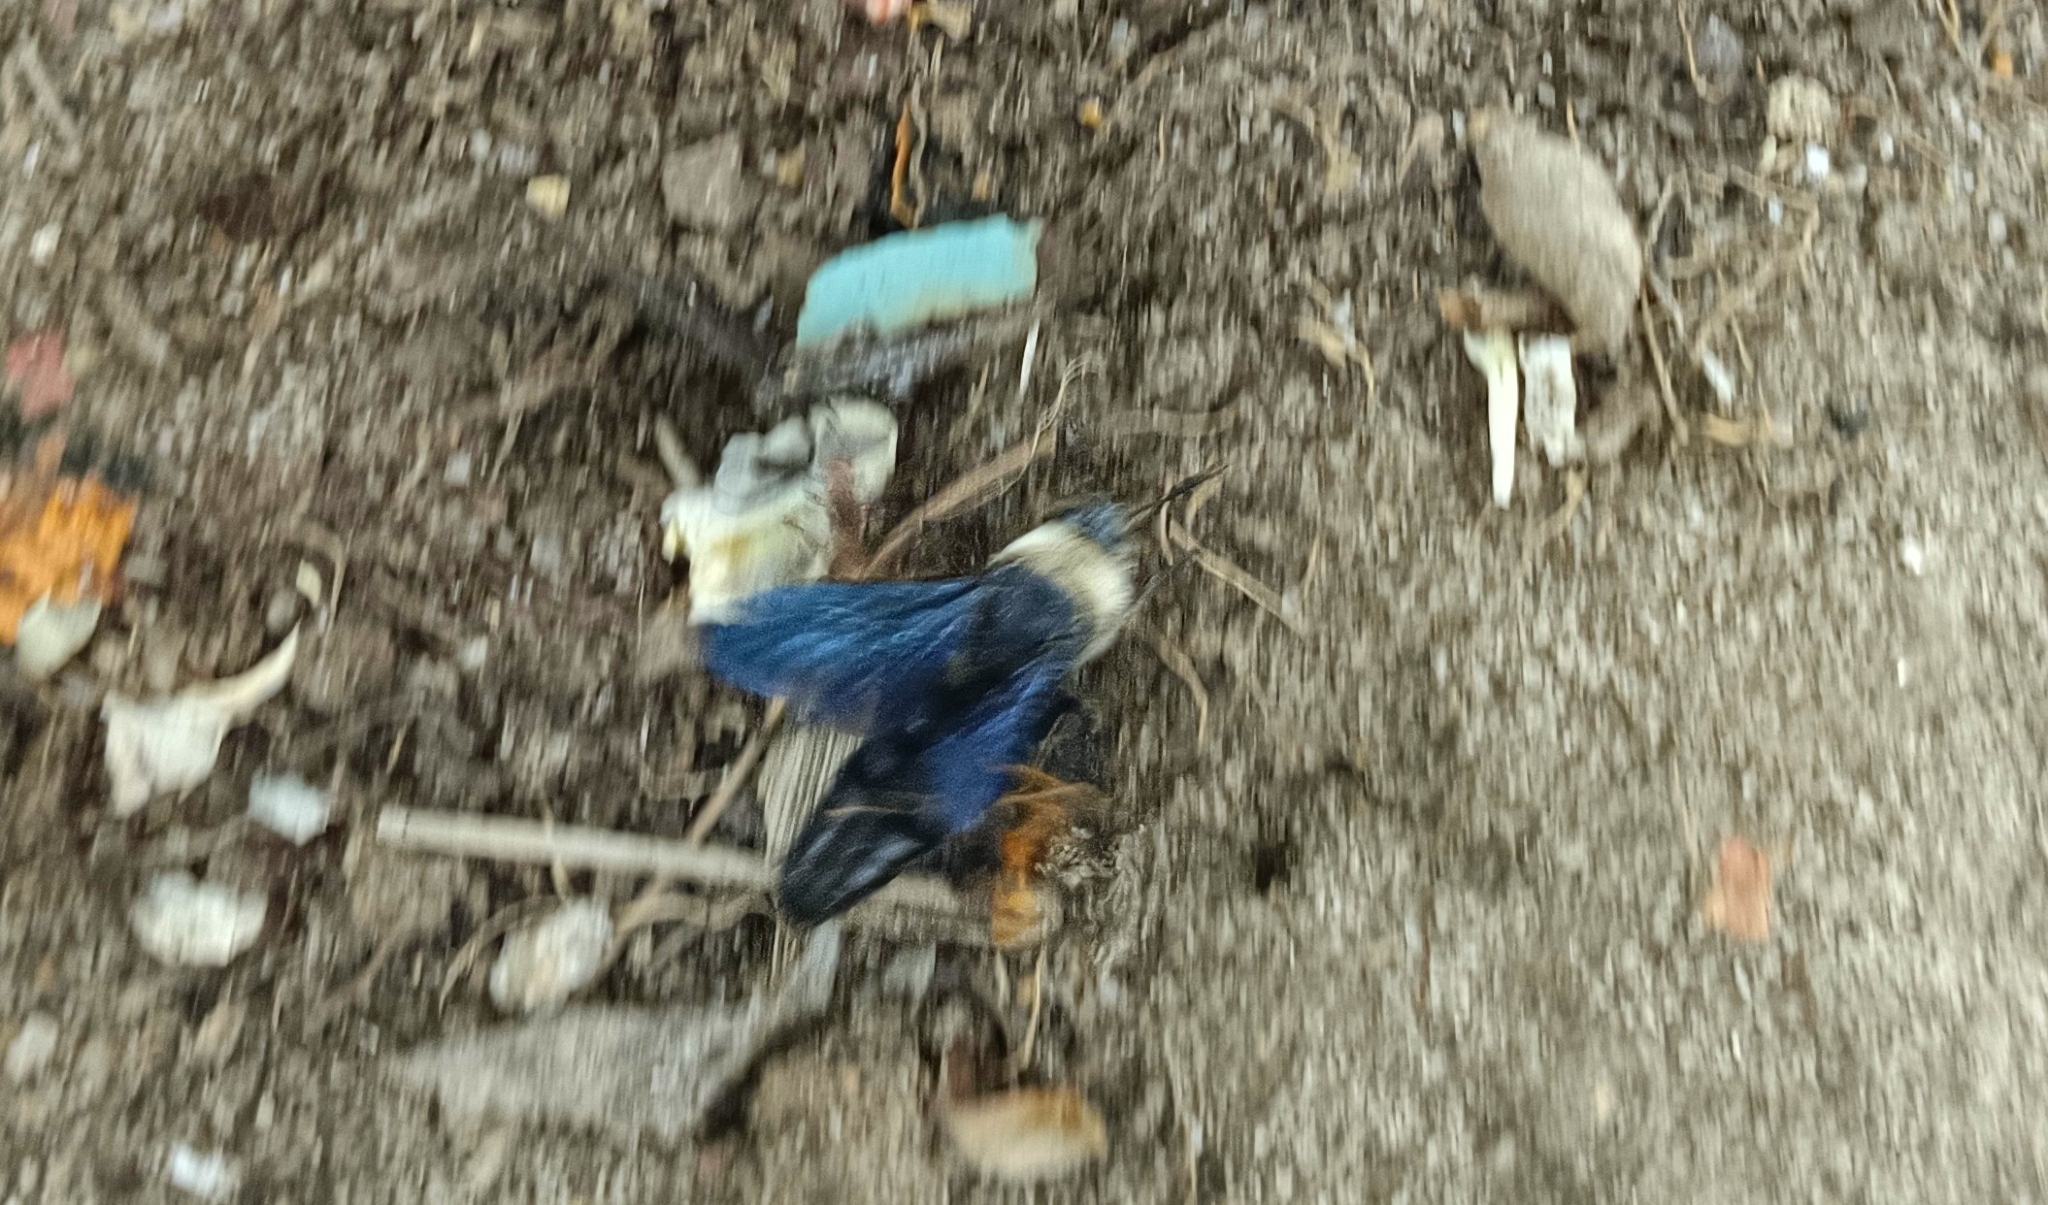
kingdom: Animalia
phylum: Arthropoda
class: Insecta
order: Hymenoptera
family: Scoliidae
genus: Campsomeriella
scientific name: Campsomeriella collaris
